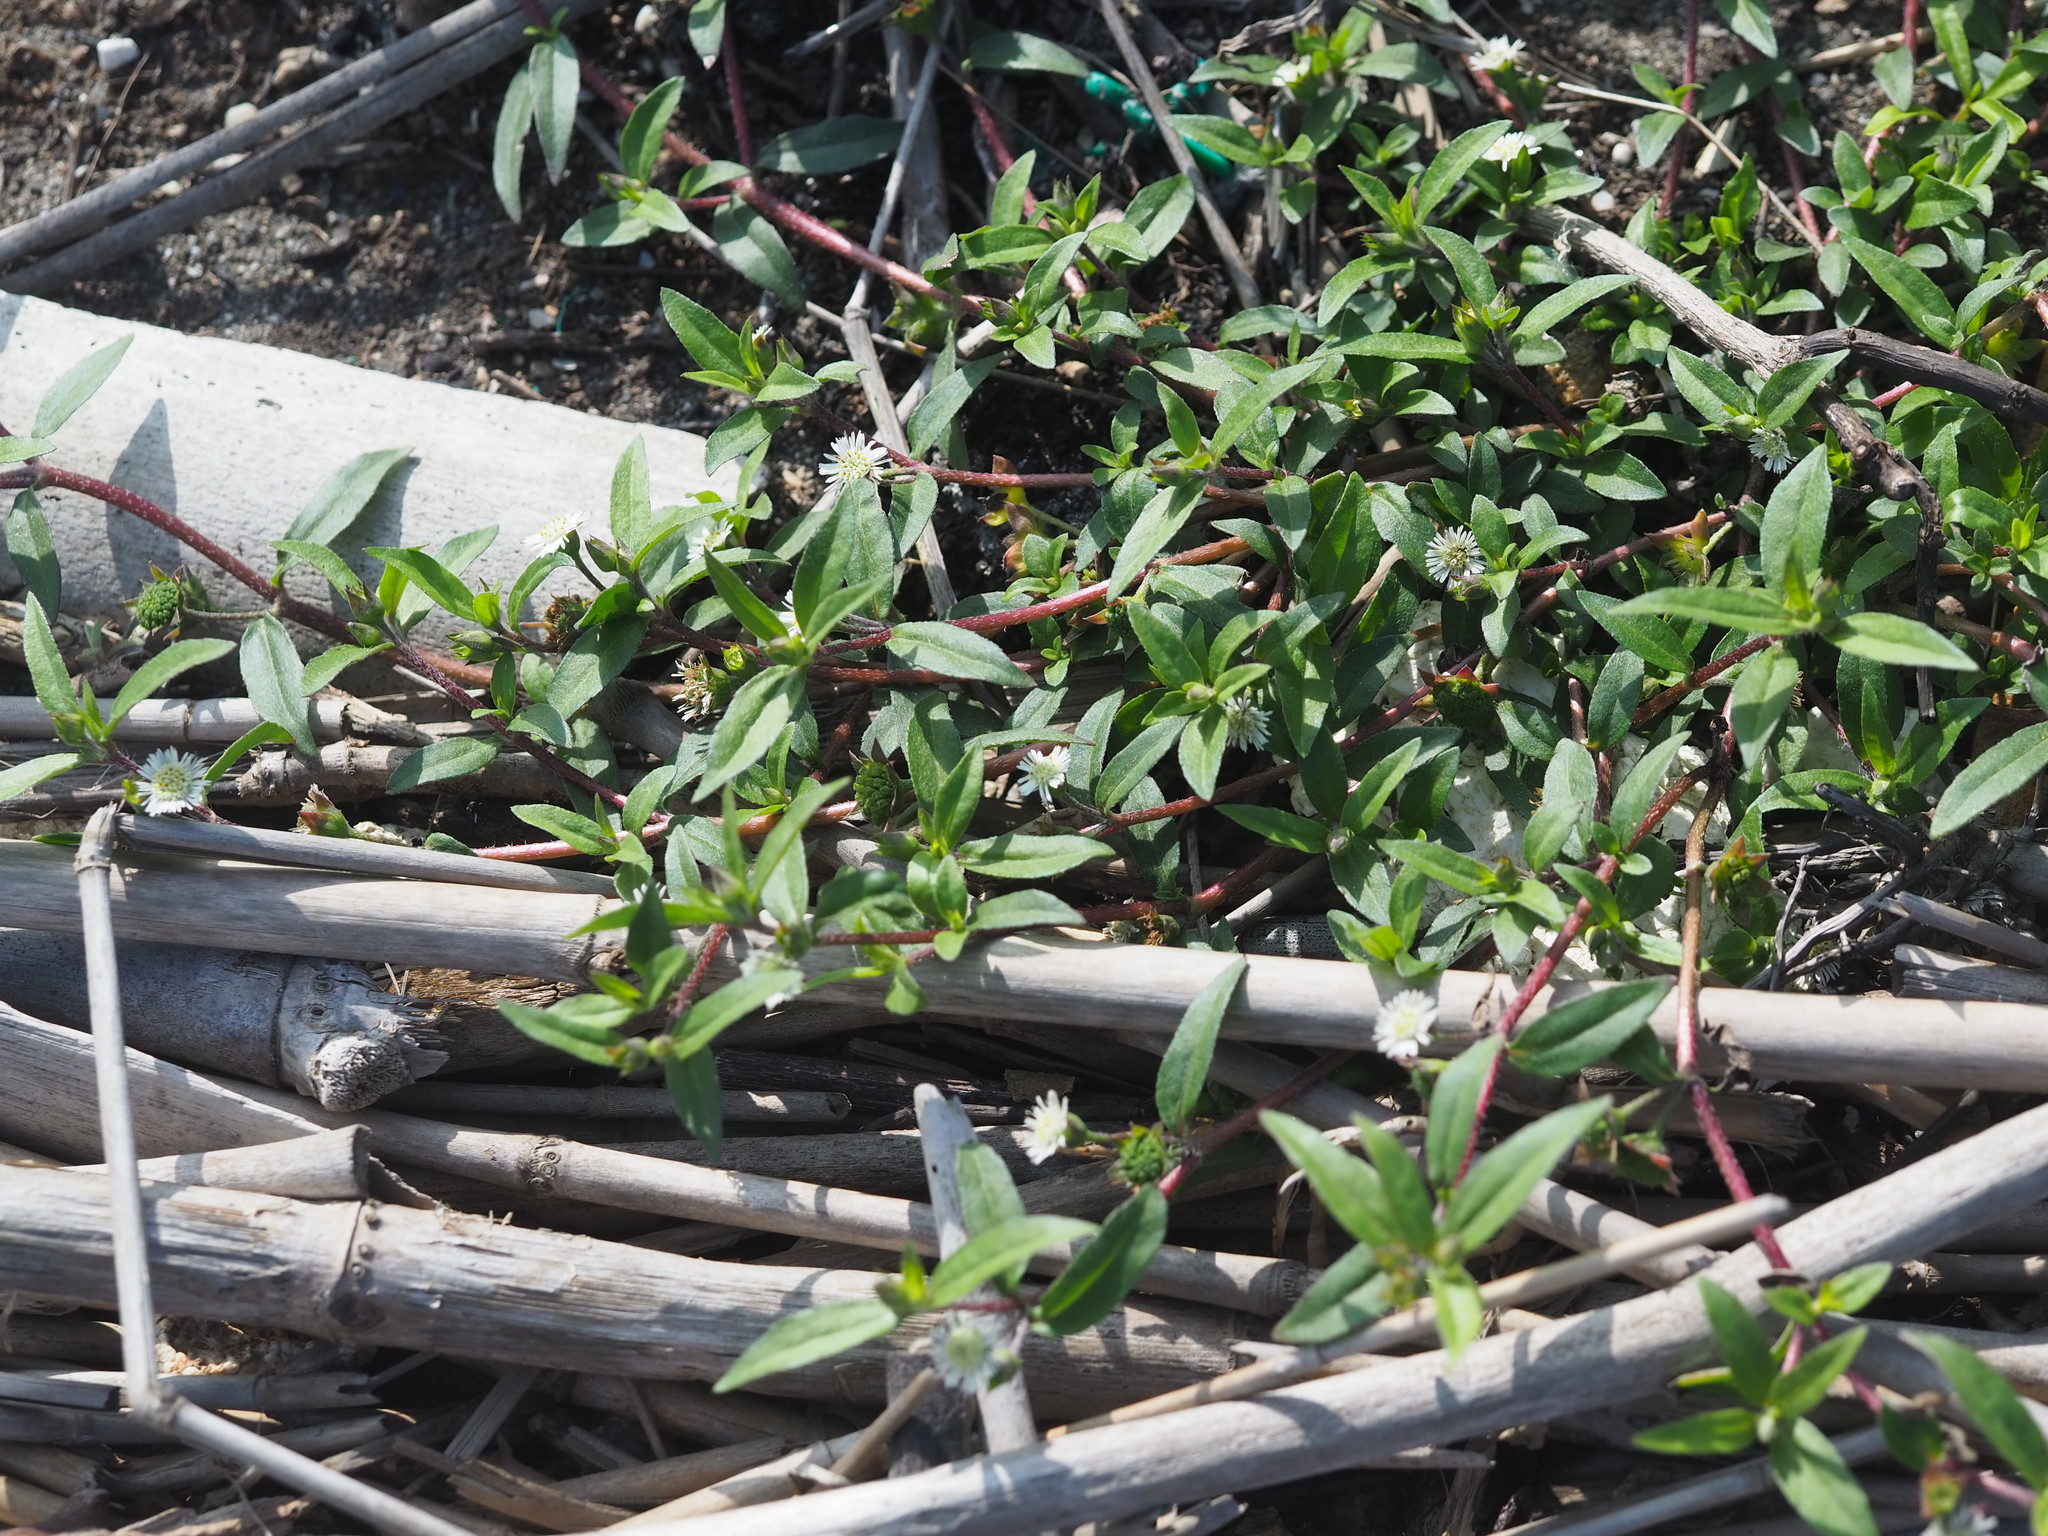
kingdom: Plantae
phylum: Tracheophyta
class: Magnoliopsida
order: Asterales
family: Asteraceae
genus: Eclipta
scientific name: Eclipta prostrata
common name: False daisy
